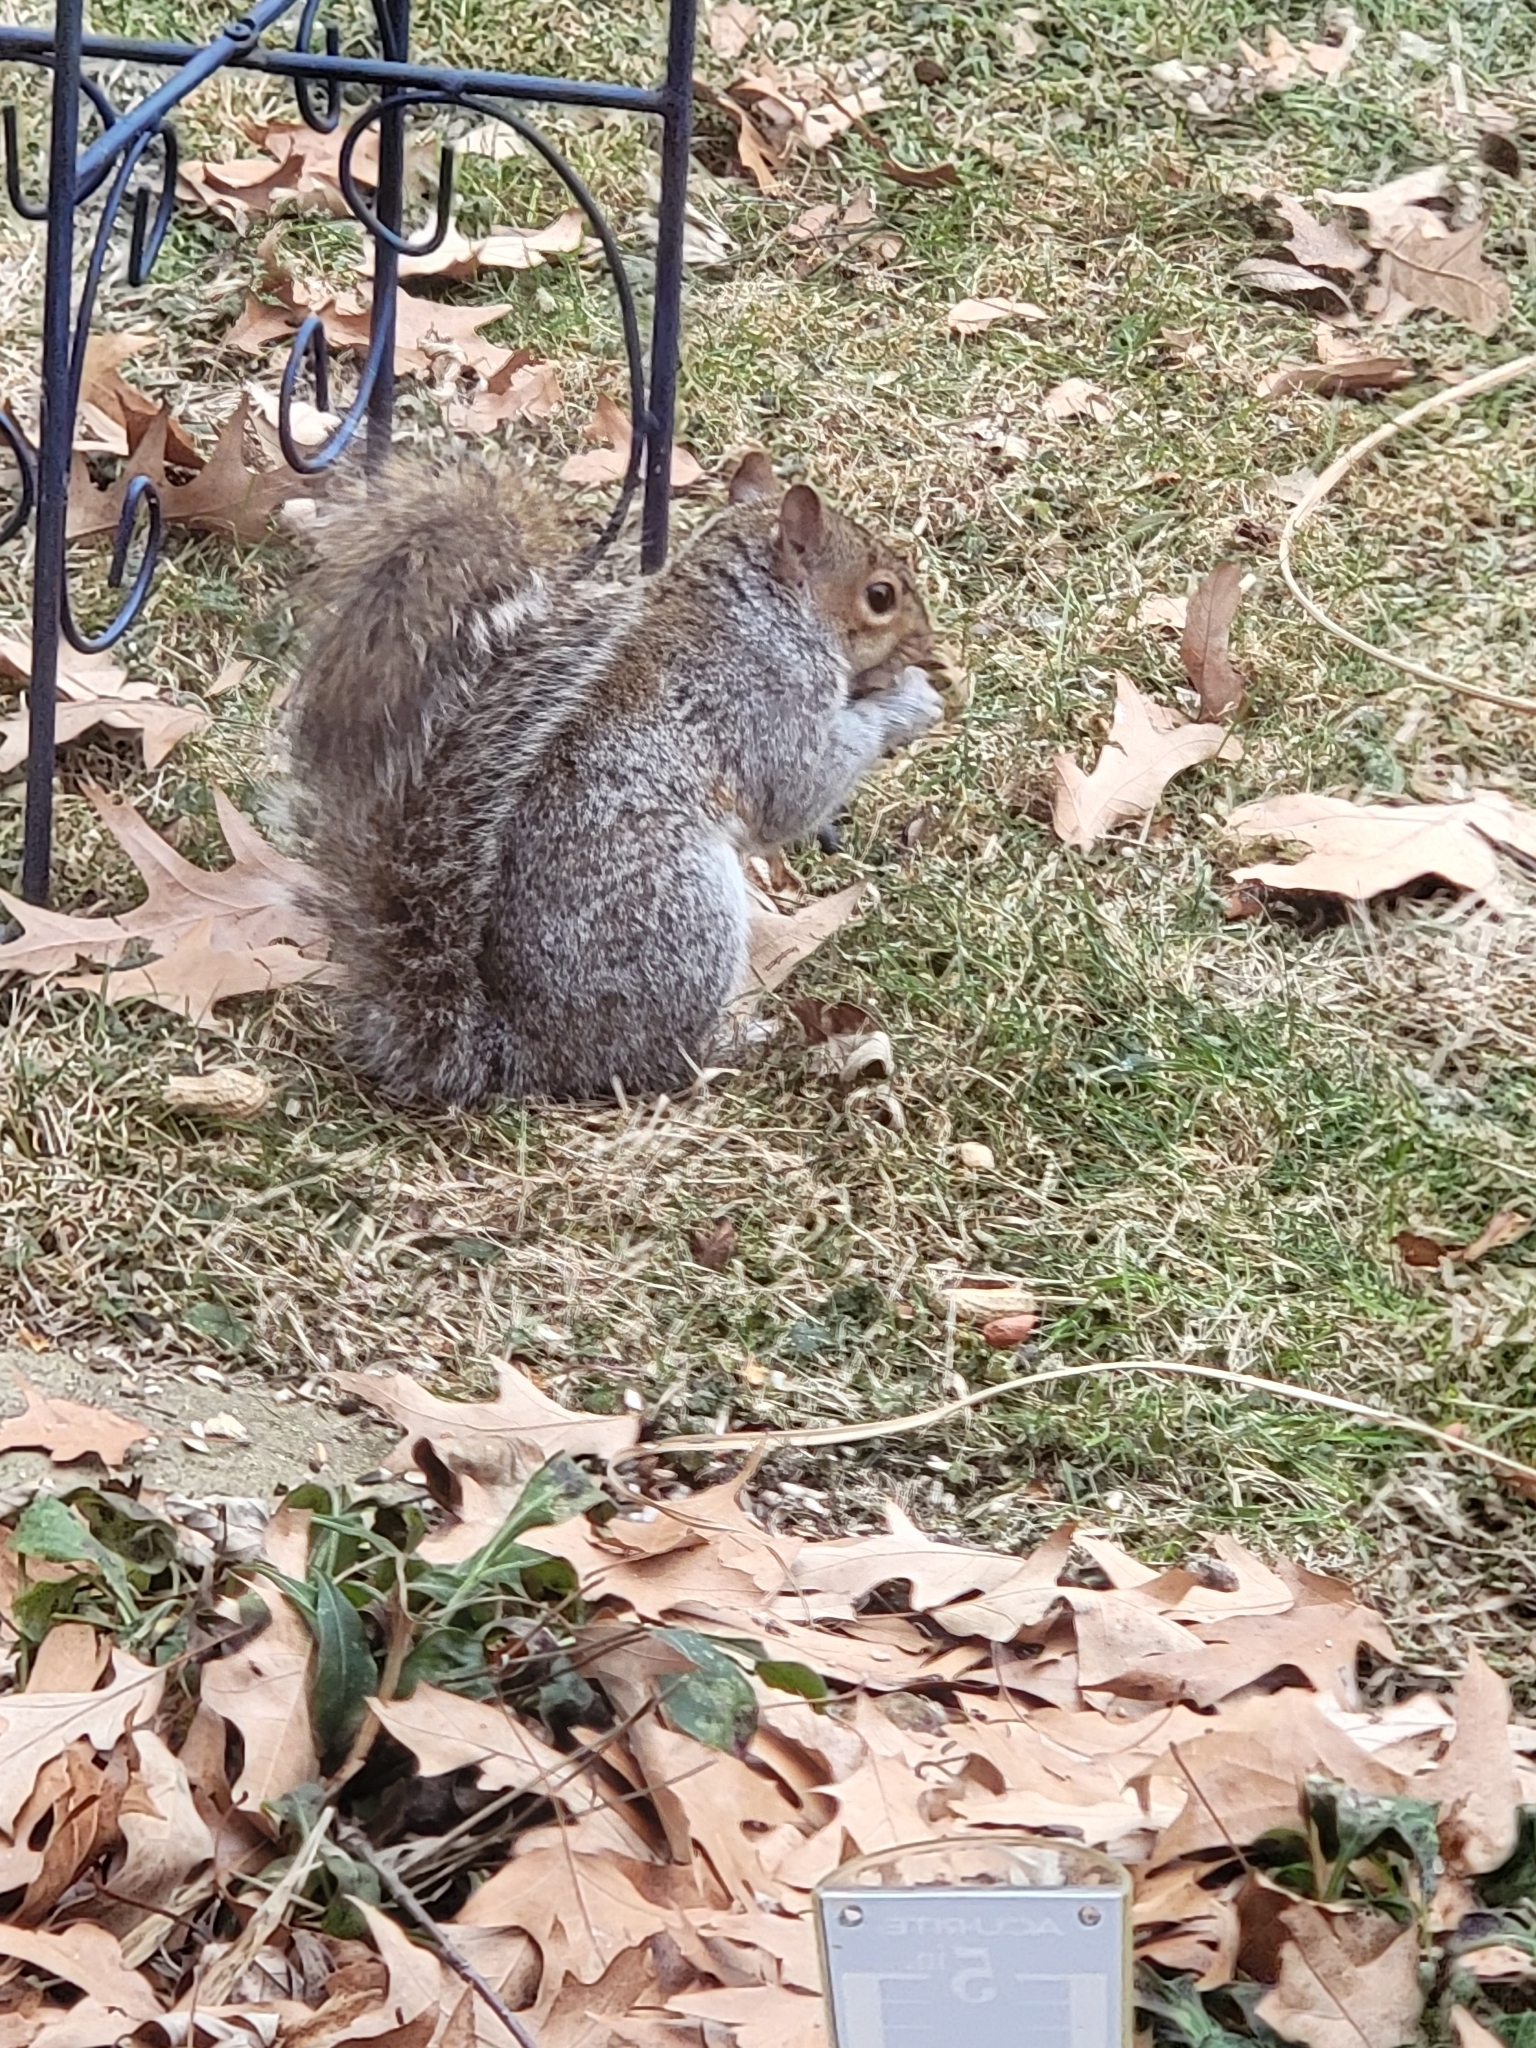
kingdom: Animalia
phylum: Chordata
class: Mammalia
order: Rodentia
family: Sciuridae
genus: Sciurus
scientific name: Sciurus carolinensis
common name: Eastern gray squirrel
